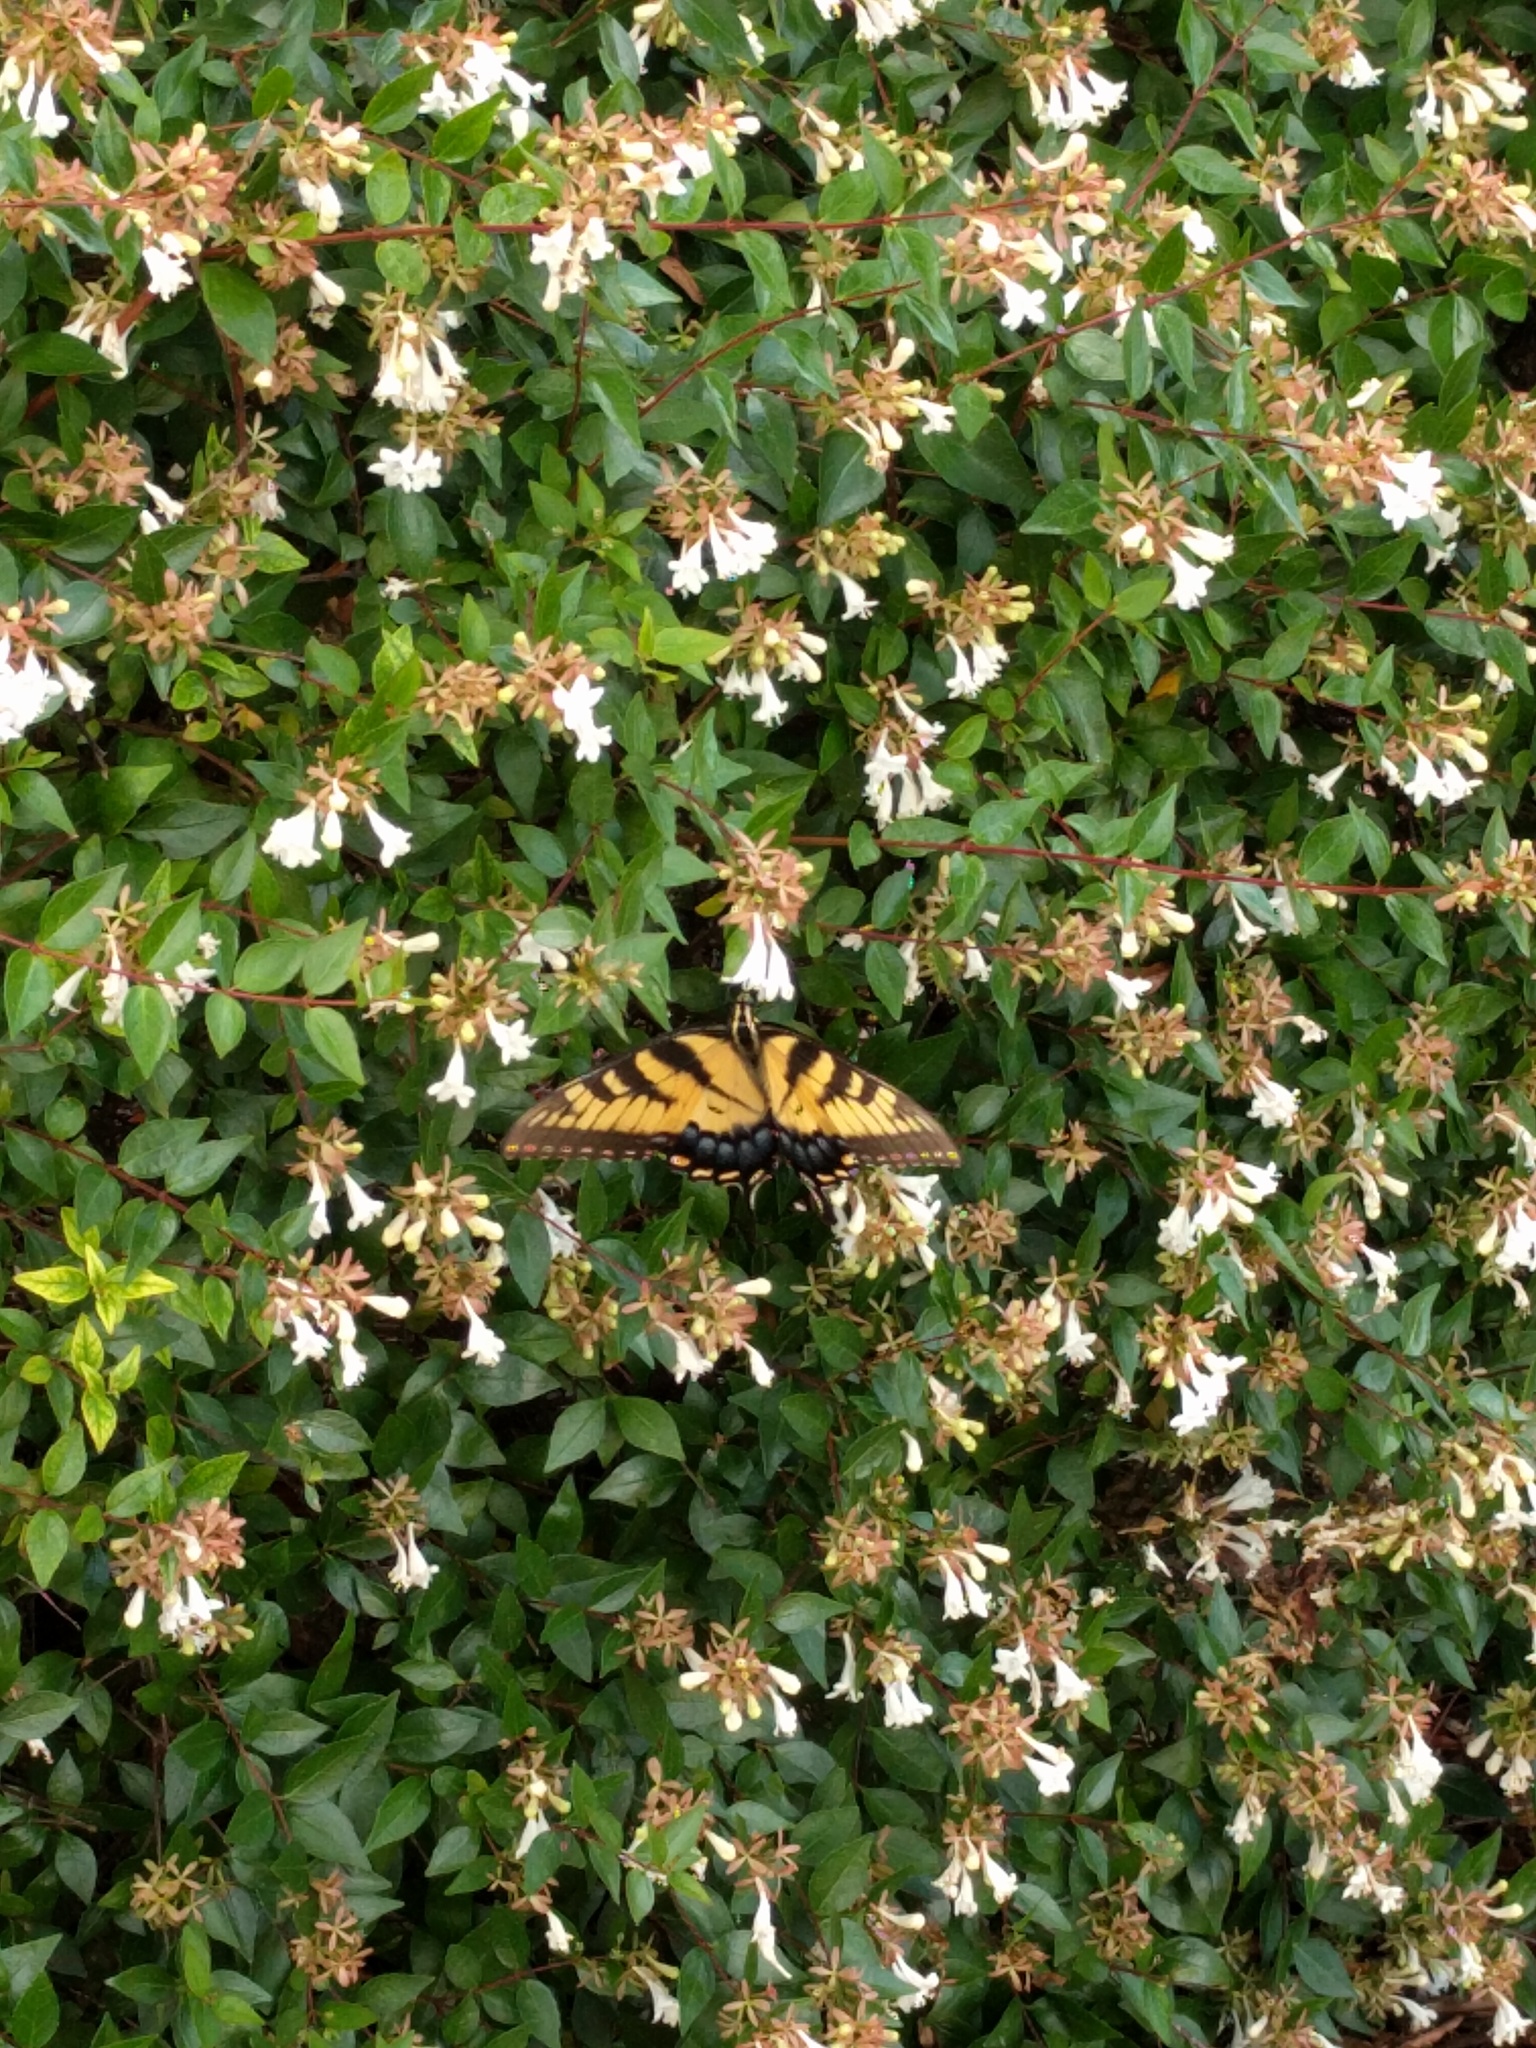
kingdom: Animalia
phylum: Arthropoda
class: Insecta
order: Lepidoptera
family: Papilionidae
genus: Papilio
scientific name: Papilio glaucus
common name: Tiger swallowtail
